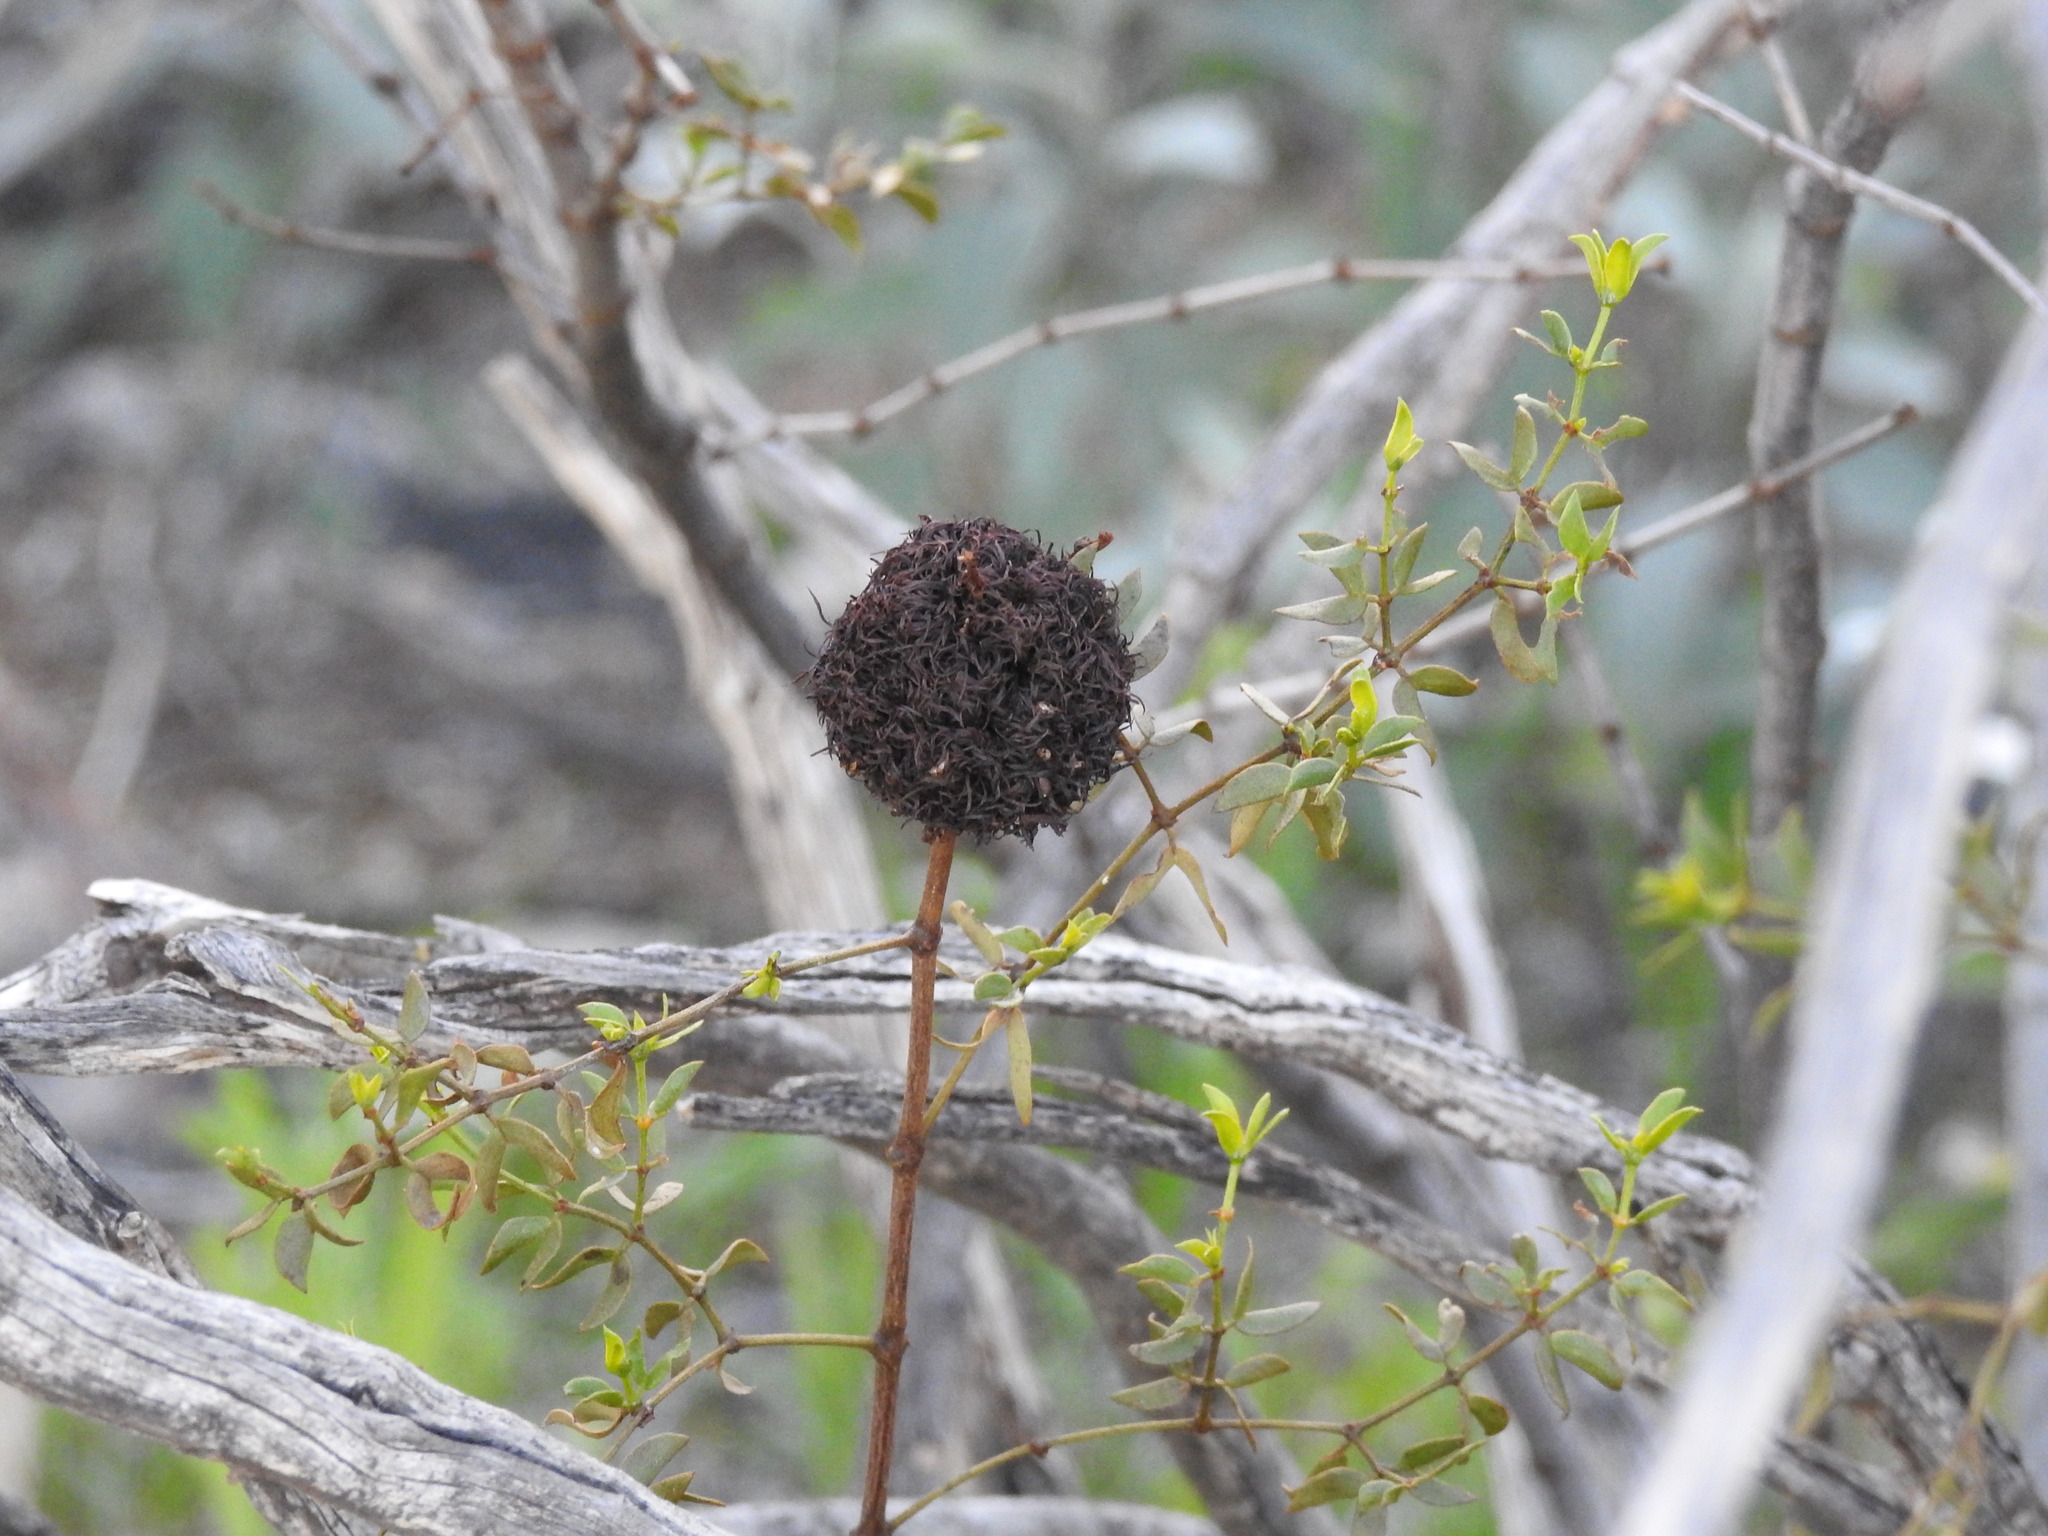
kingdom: Animalia
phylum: Arthropoda
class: Insecta
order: Diptera
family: Cecidomyiidae
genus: Asphondylia
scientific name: Asphondylia auripila
